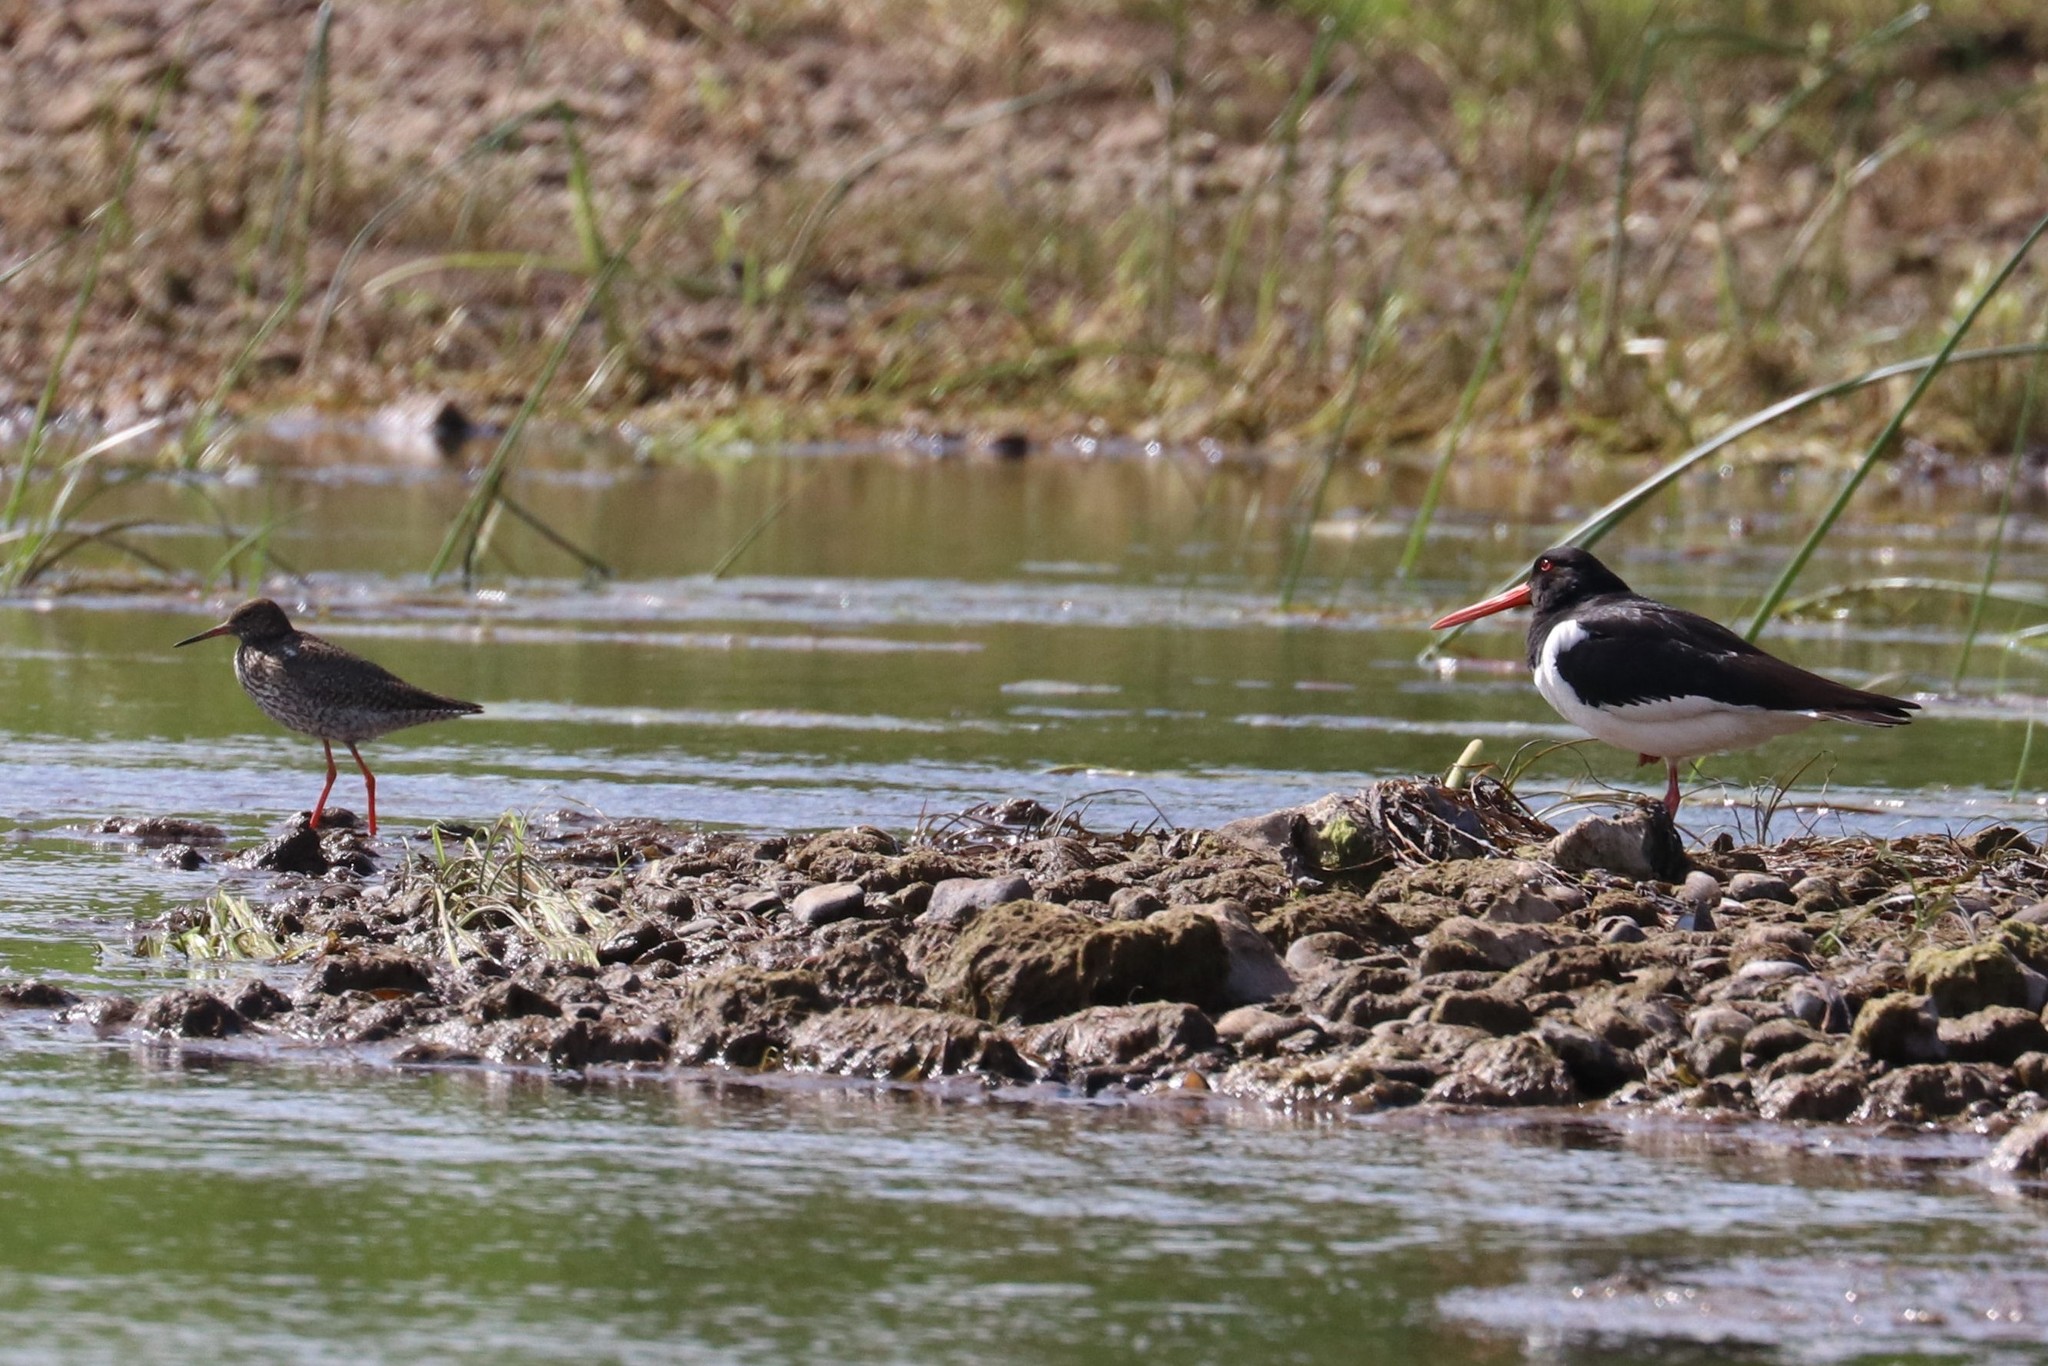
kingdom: Animalia
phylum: Chordata
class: Aves
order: Charadriiformes
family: Haematopodidae
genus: Haematopus
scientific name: Haematopus ostralegus
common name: Eurasian oystercatcher
